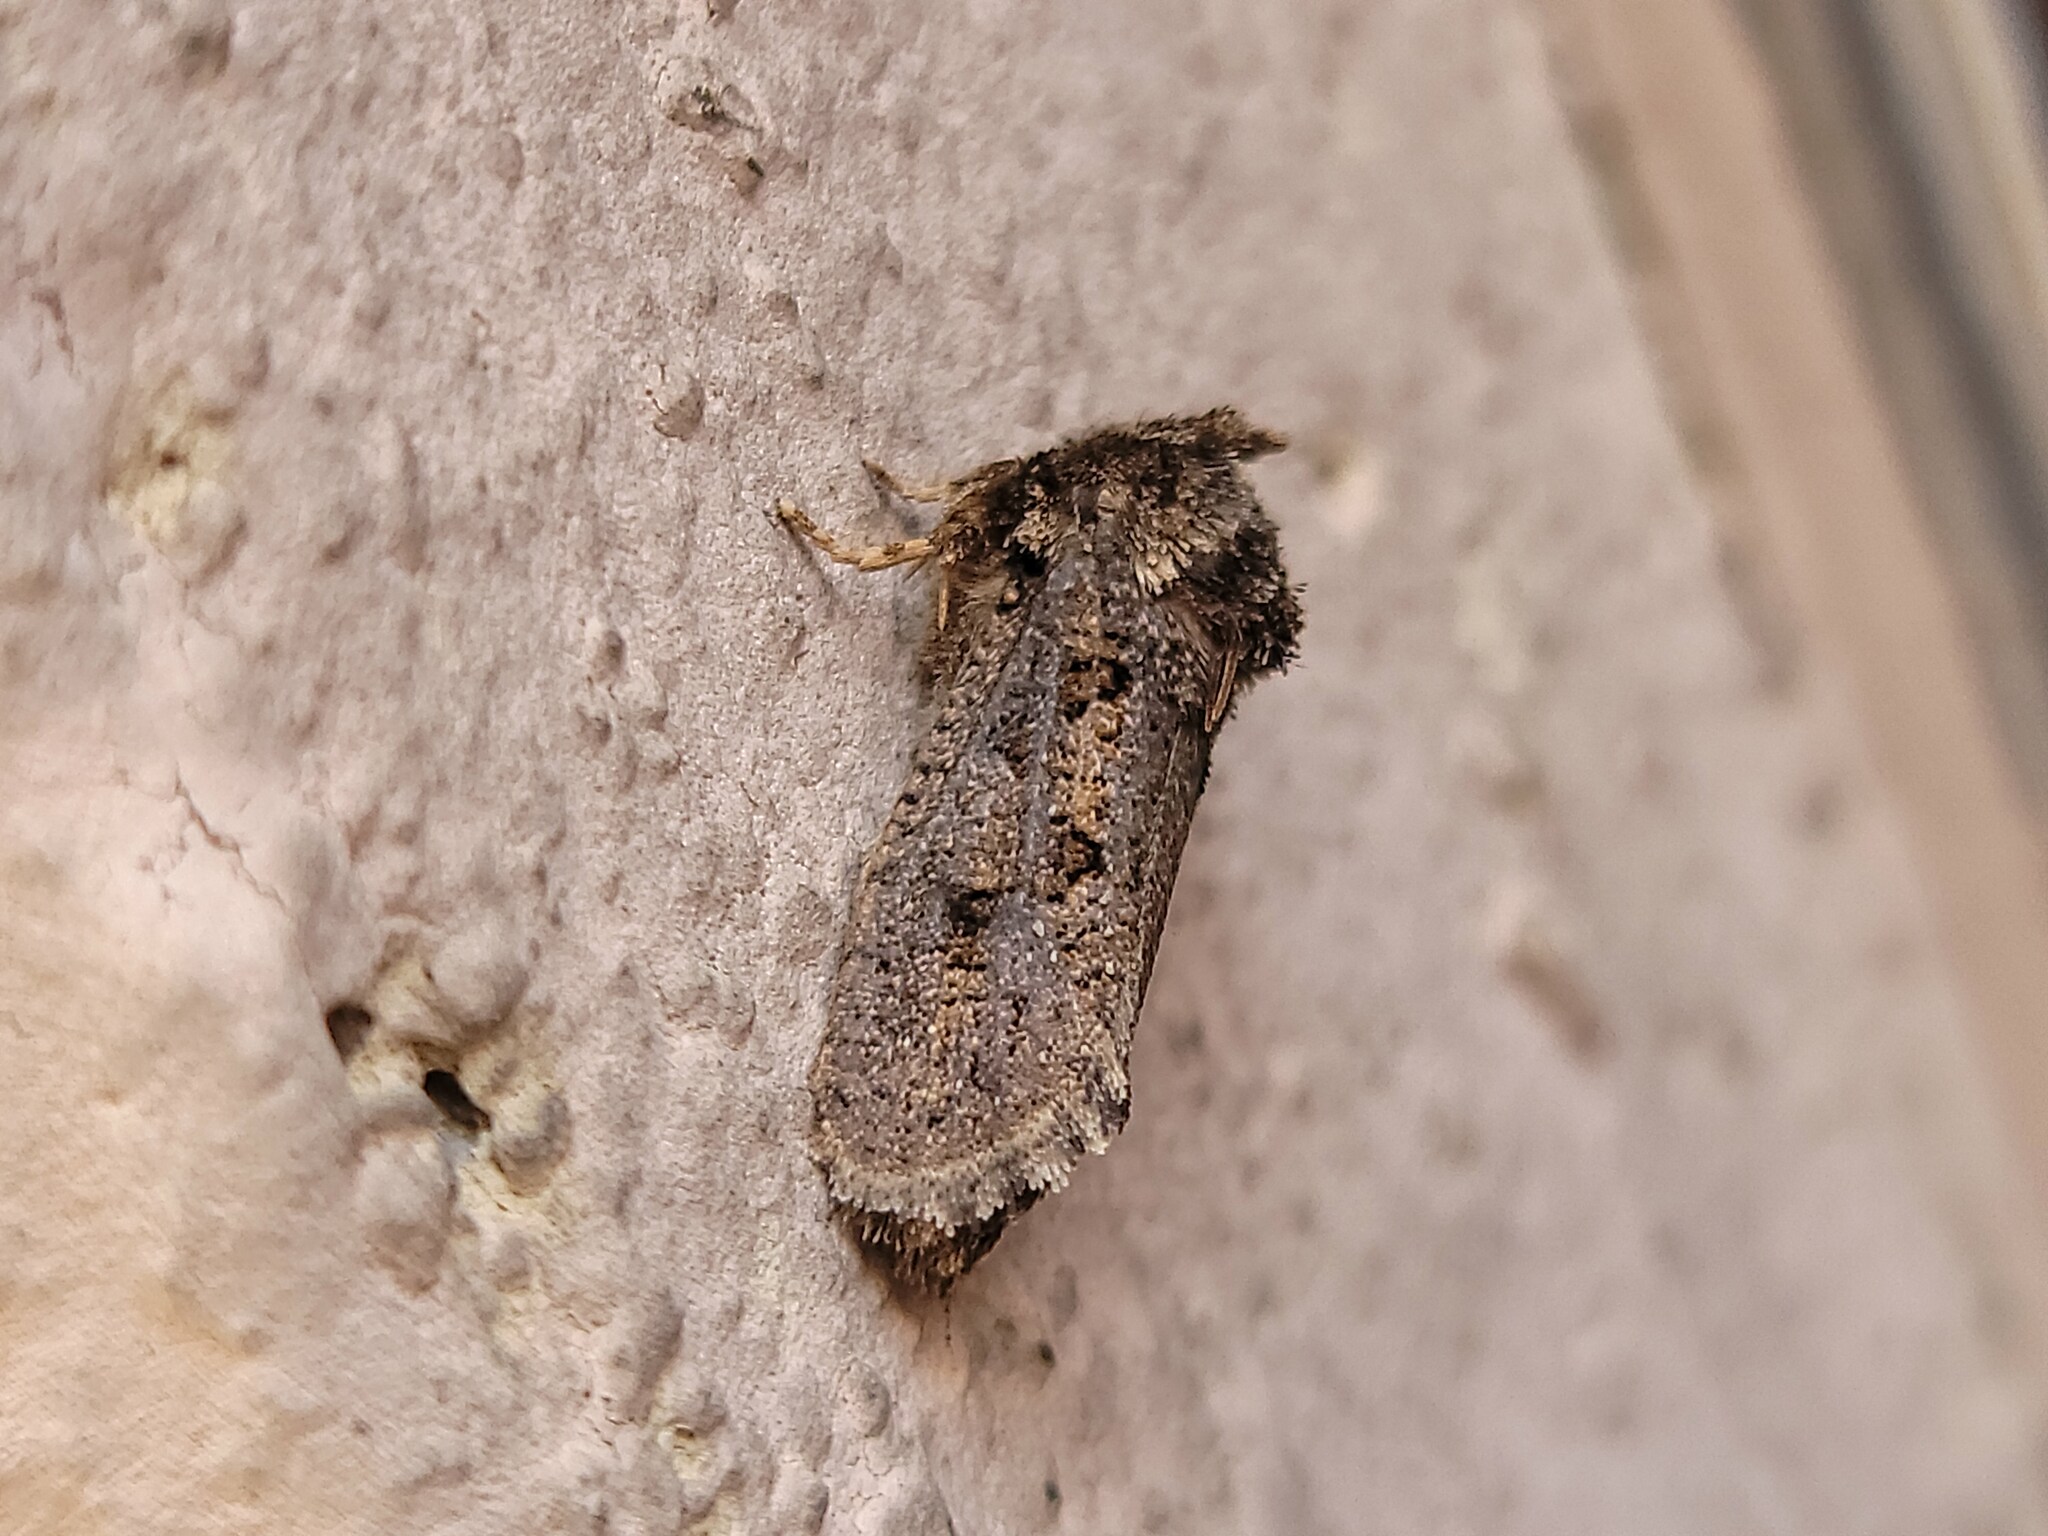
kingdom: Animalia
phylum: Arthropoda
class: Insecta
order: Lepidoptera
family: Tineidae
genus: Acrolophus
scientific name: Acrolophus arcanella
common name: Arcane grass tubeworm moth
